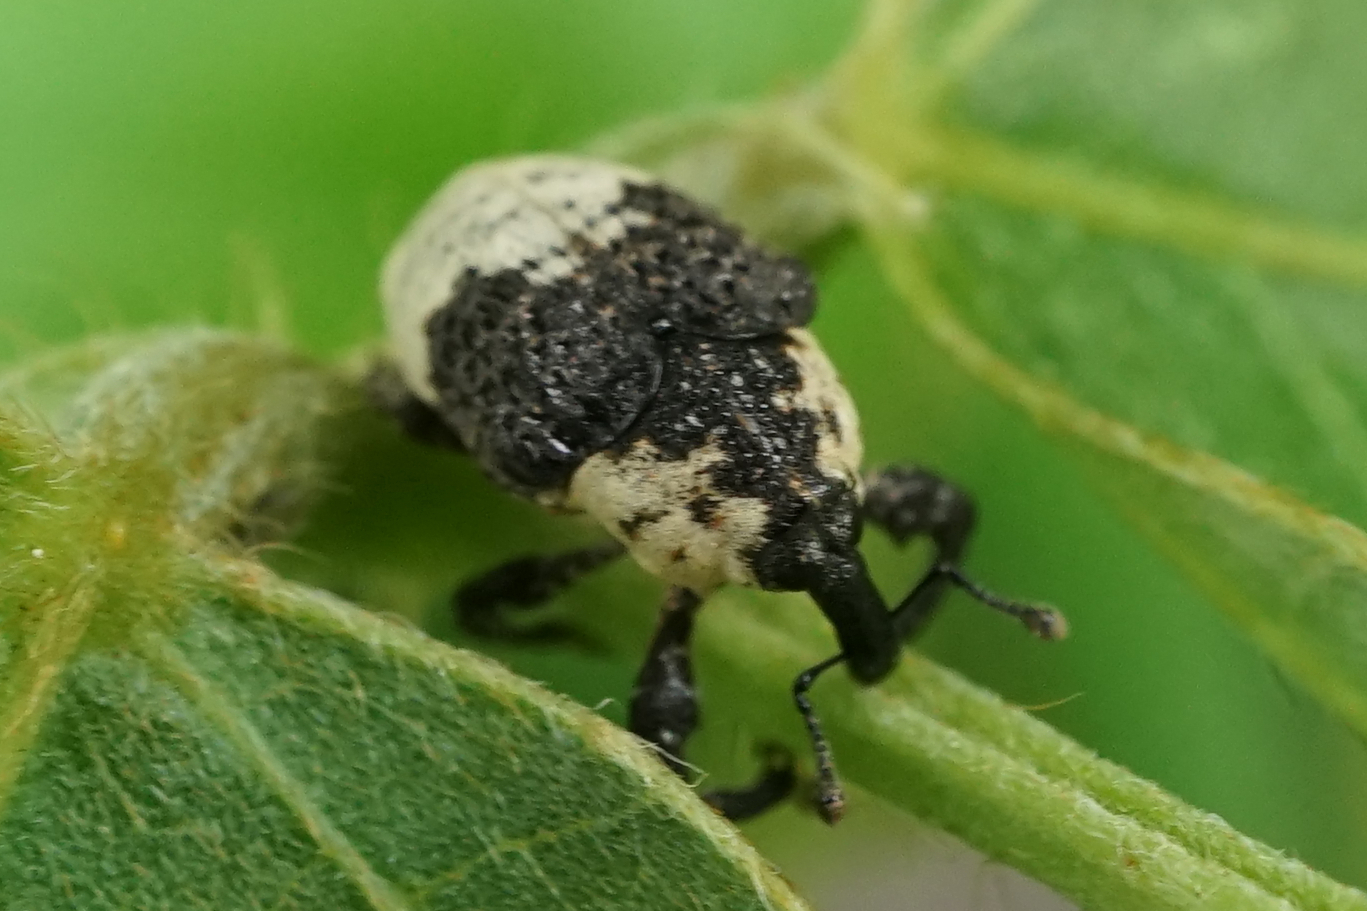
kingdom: Animalia
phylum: Arthropoda
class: Insecta
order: Coleoptera
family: Curculionidae
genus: Alcides
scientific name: Alcides trifidus
